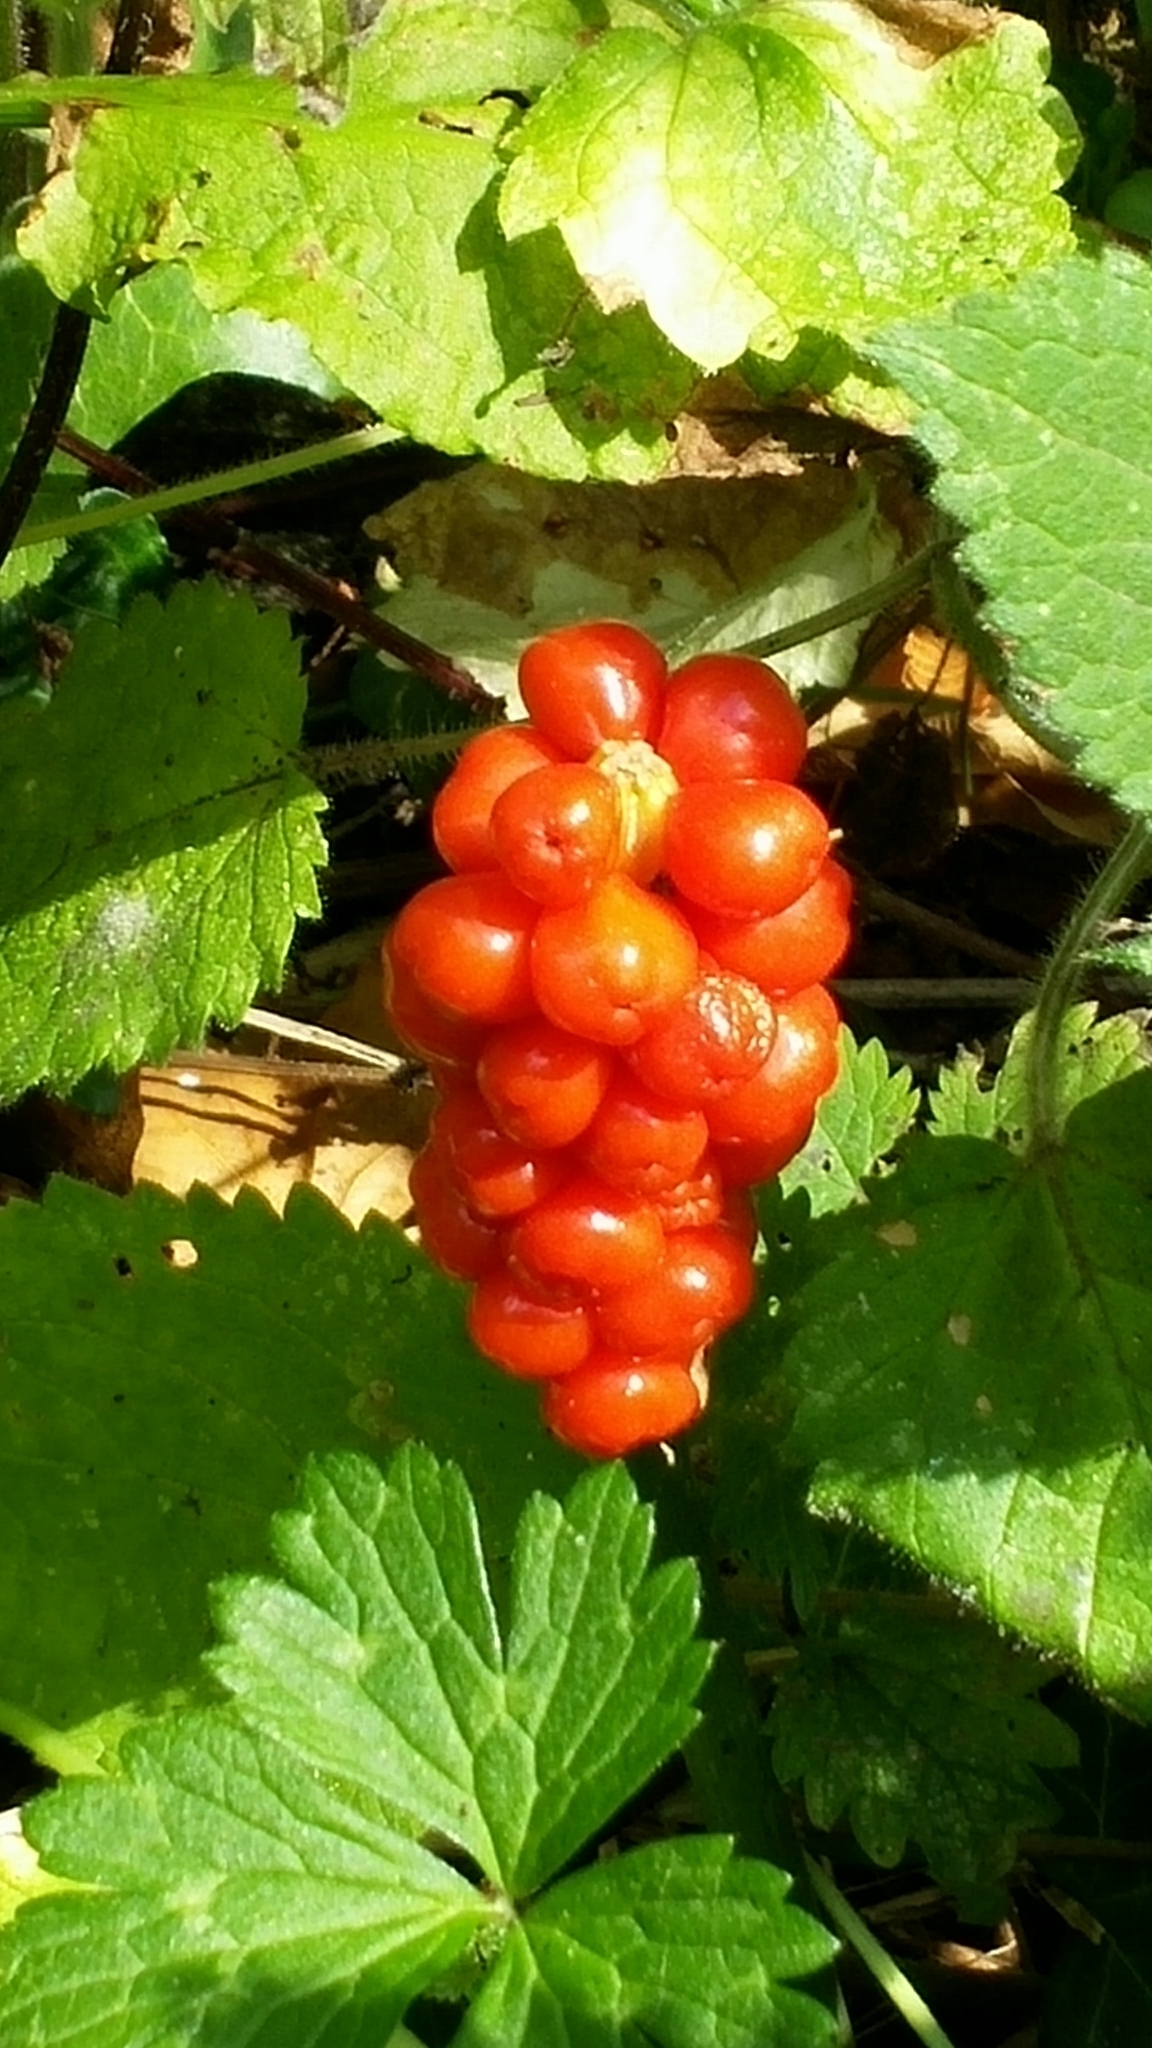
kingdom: Plantae
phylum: Tracheophyta
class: Liliopsida
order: Alismatales
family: Araceae
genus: Arum
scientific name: Arum maculatum
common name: Lords-and-ladies
